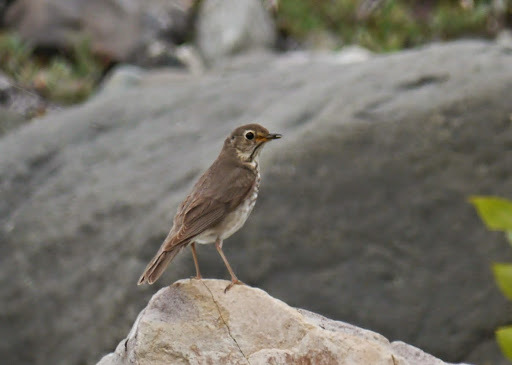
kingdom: Animalia
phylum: Chordata
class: Aves
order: Passeriformes
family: Turdidae
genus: Catharus
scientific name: Catharus ustulatus
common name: Swainson's thrush
